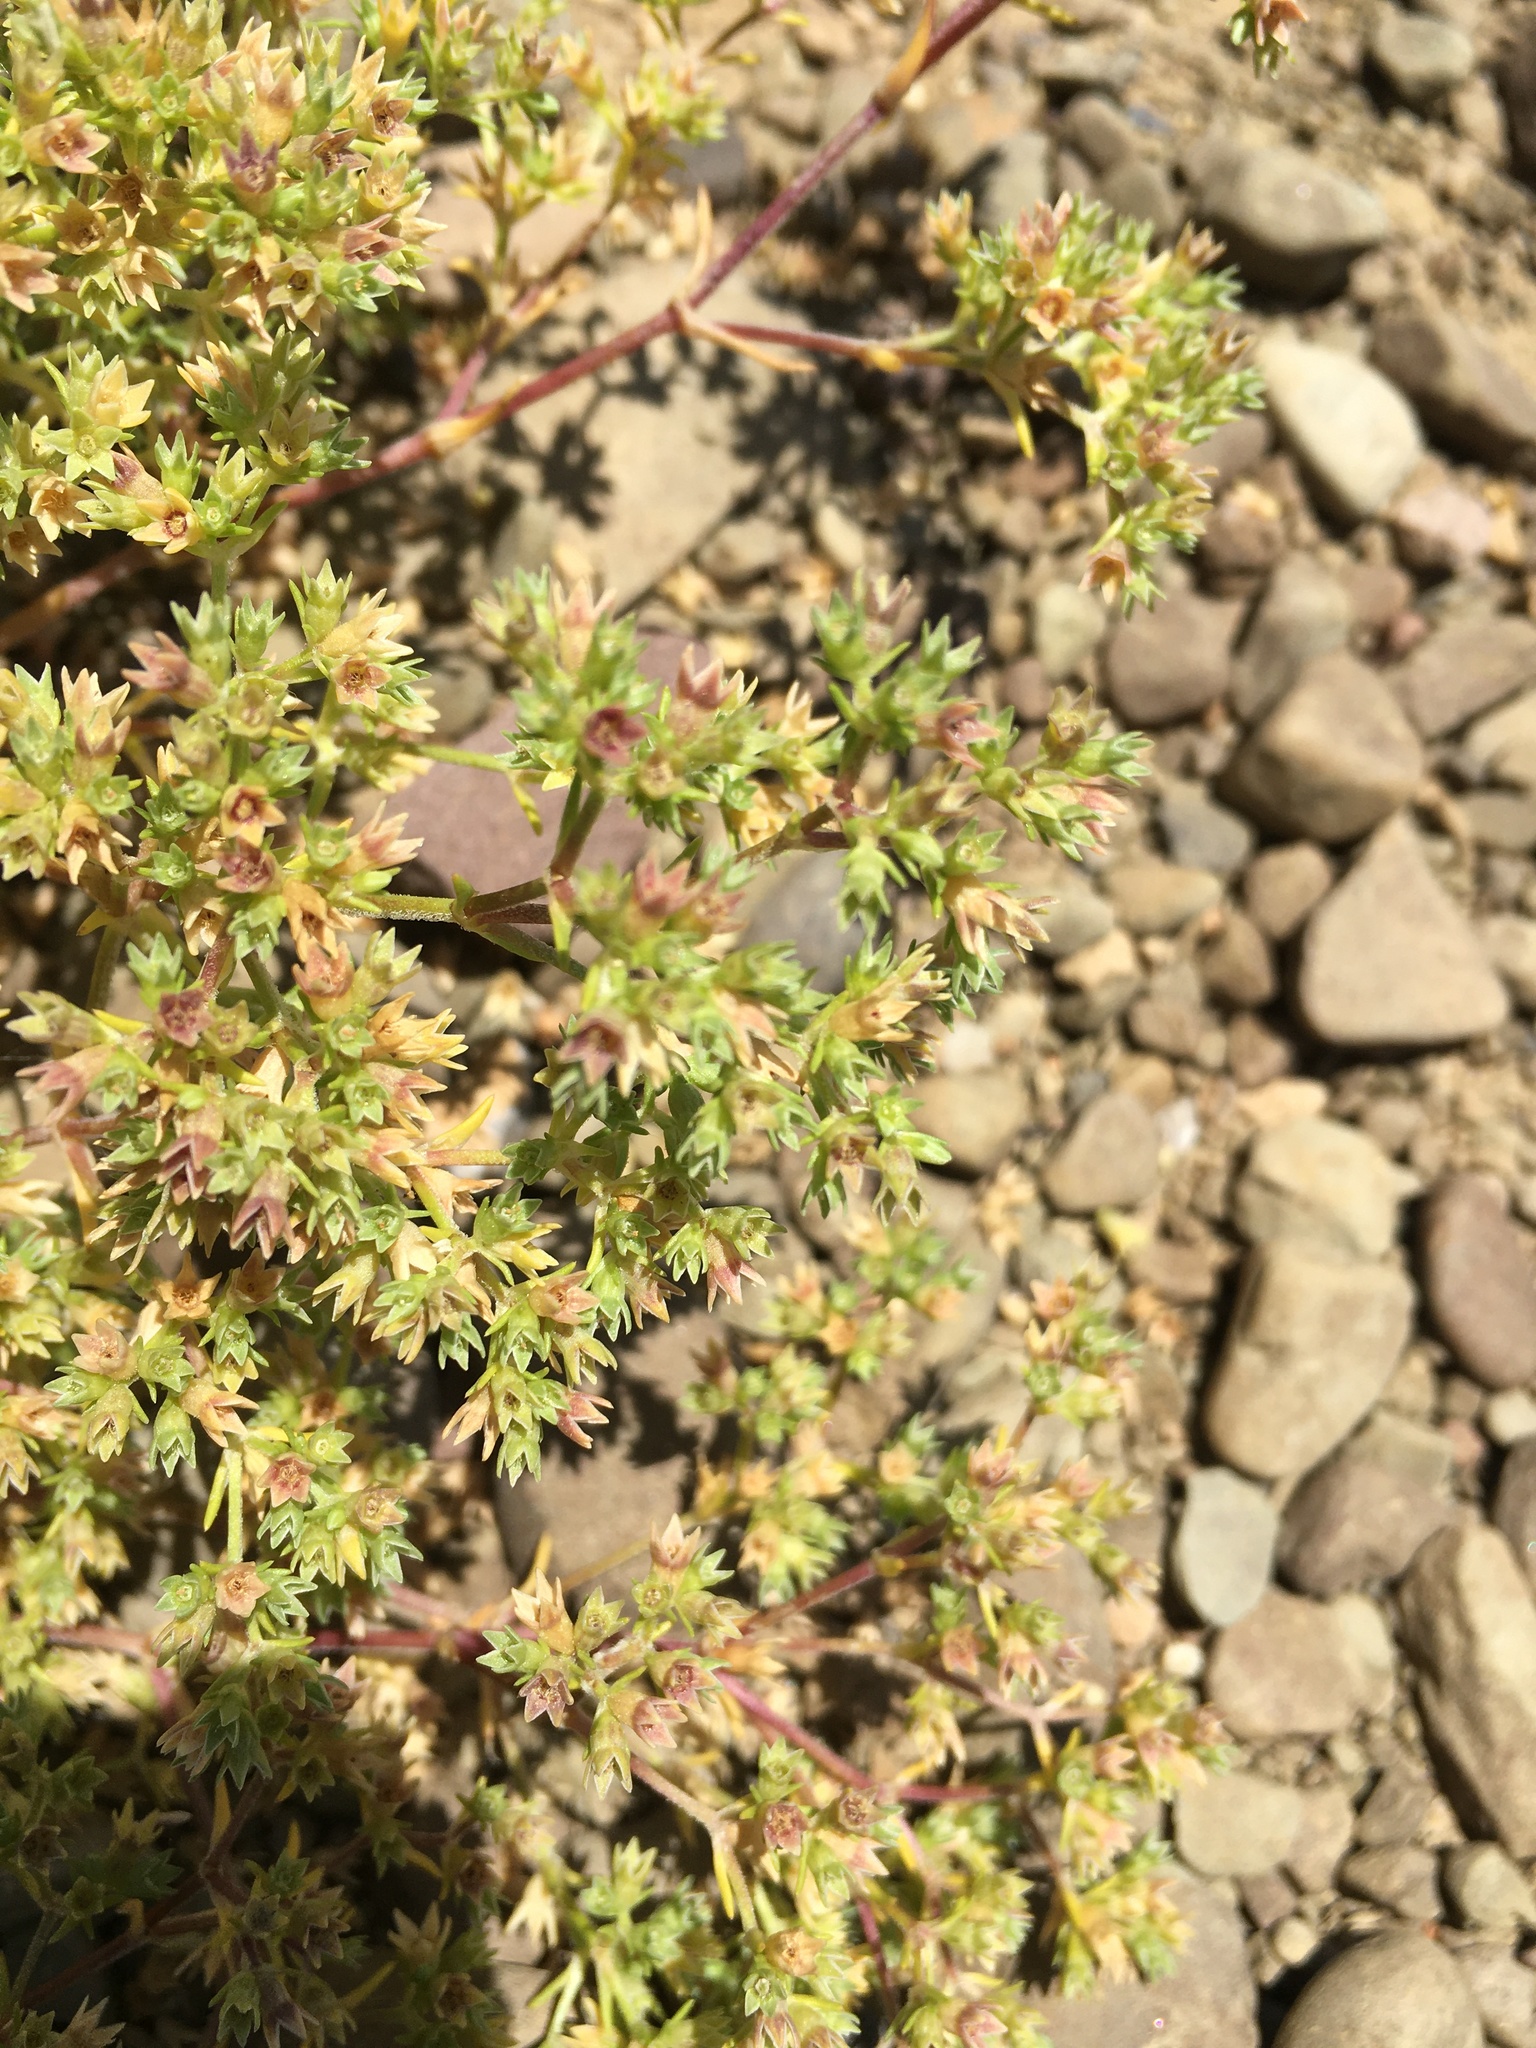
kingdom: Plantae
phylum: Tracheophyta
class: Magnoliopsida
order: Caryophyllales
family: Caryophyllaceae
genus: Scleranthus
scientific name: Scleranthus annuus
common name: Annual knawel
